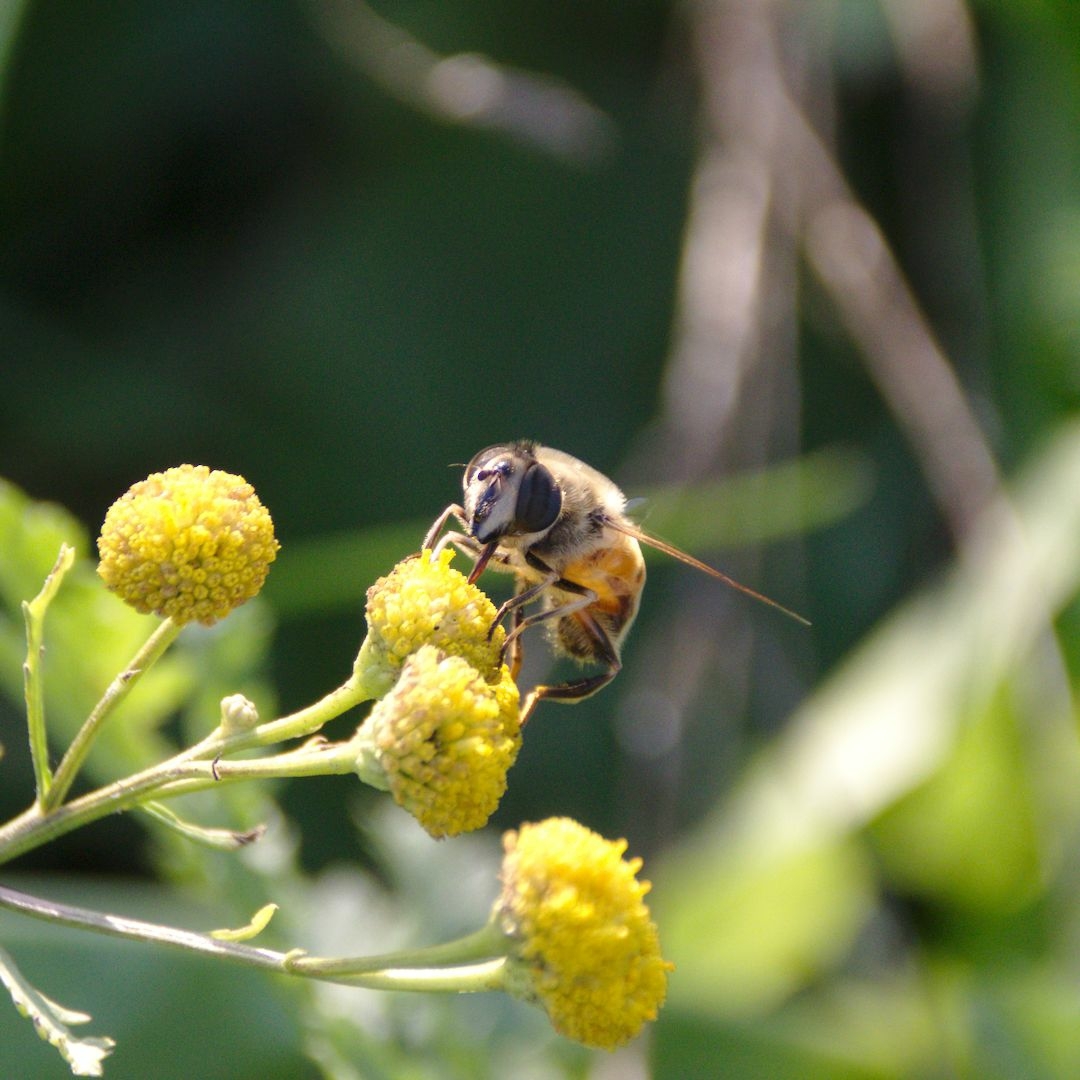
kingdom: Animalia
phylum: Arthropoda
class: Insecta
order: Diptera
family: Syrphidae
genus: Eristalis
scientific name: Eristalis tenax
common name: Drone fly
